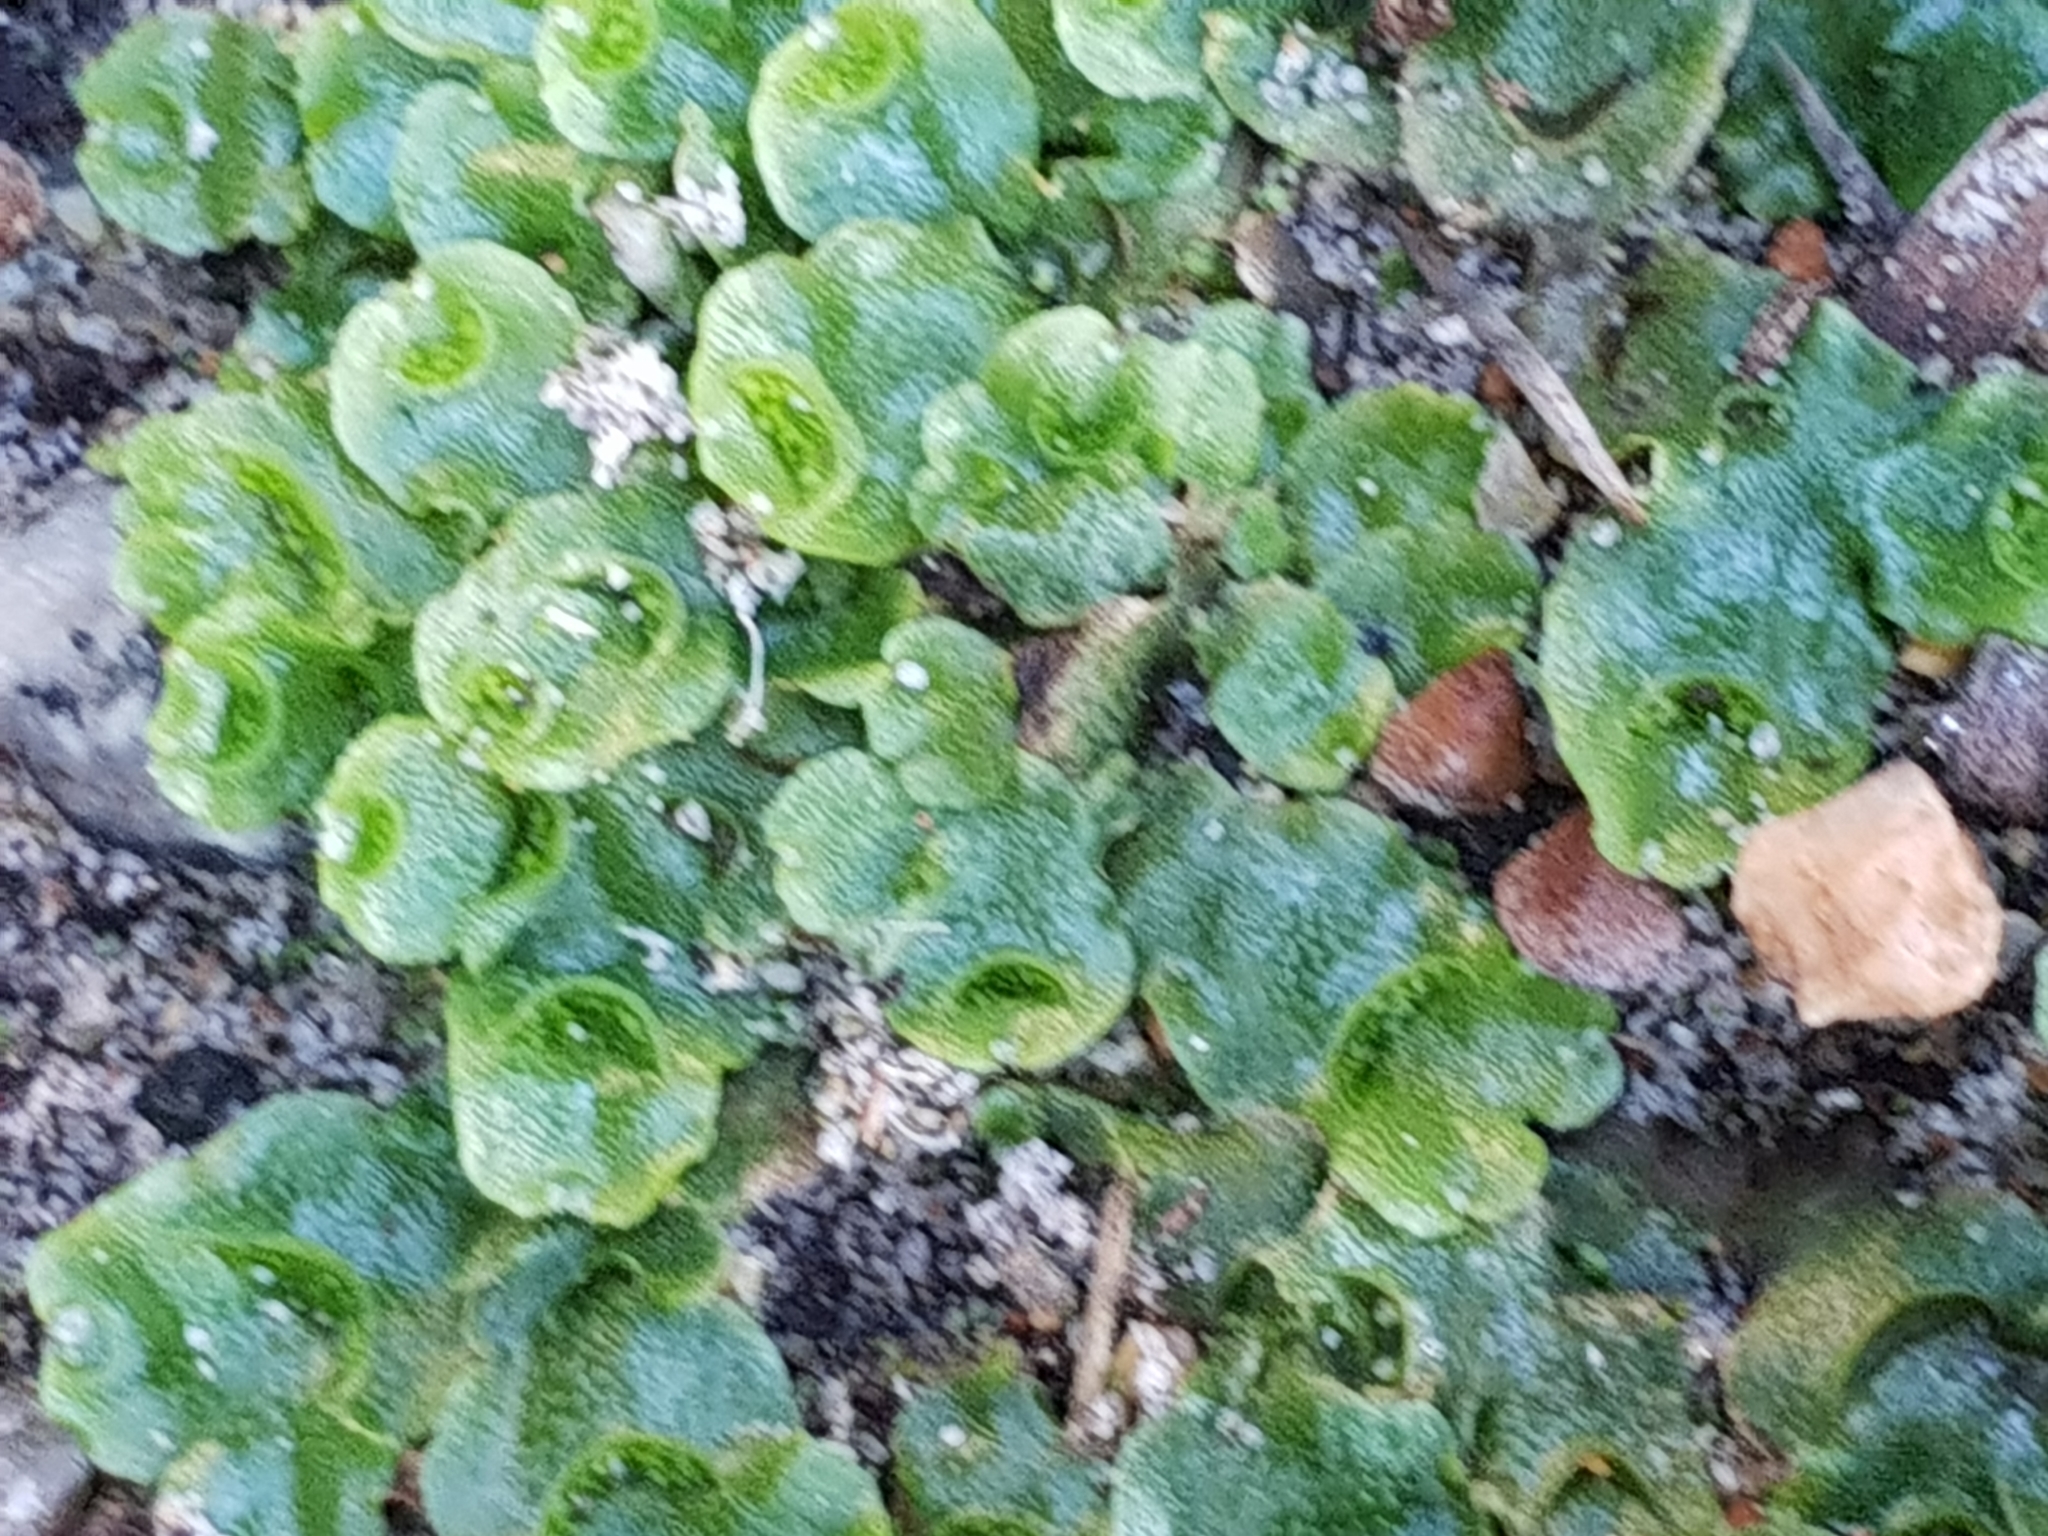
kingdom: Plantae
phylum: Marchantiophyta
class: Marchantiopsida
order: Lunulariales
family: Lunulariaceae
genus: Lunularia
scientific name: Lunularia cruciata
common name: Crescent-cup liverwort
